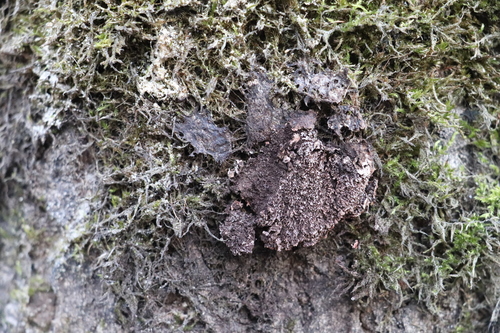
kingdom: Protozoa
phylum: Mycetozoa
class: Myxomycetes
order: Physarales
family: Physaraceae
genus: Fuligo
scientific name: Fuligo septica
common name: Dog vomit slime mold
